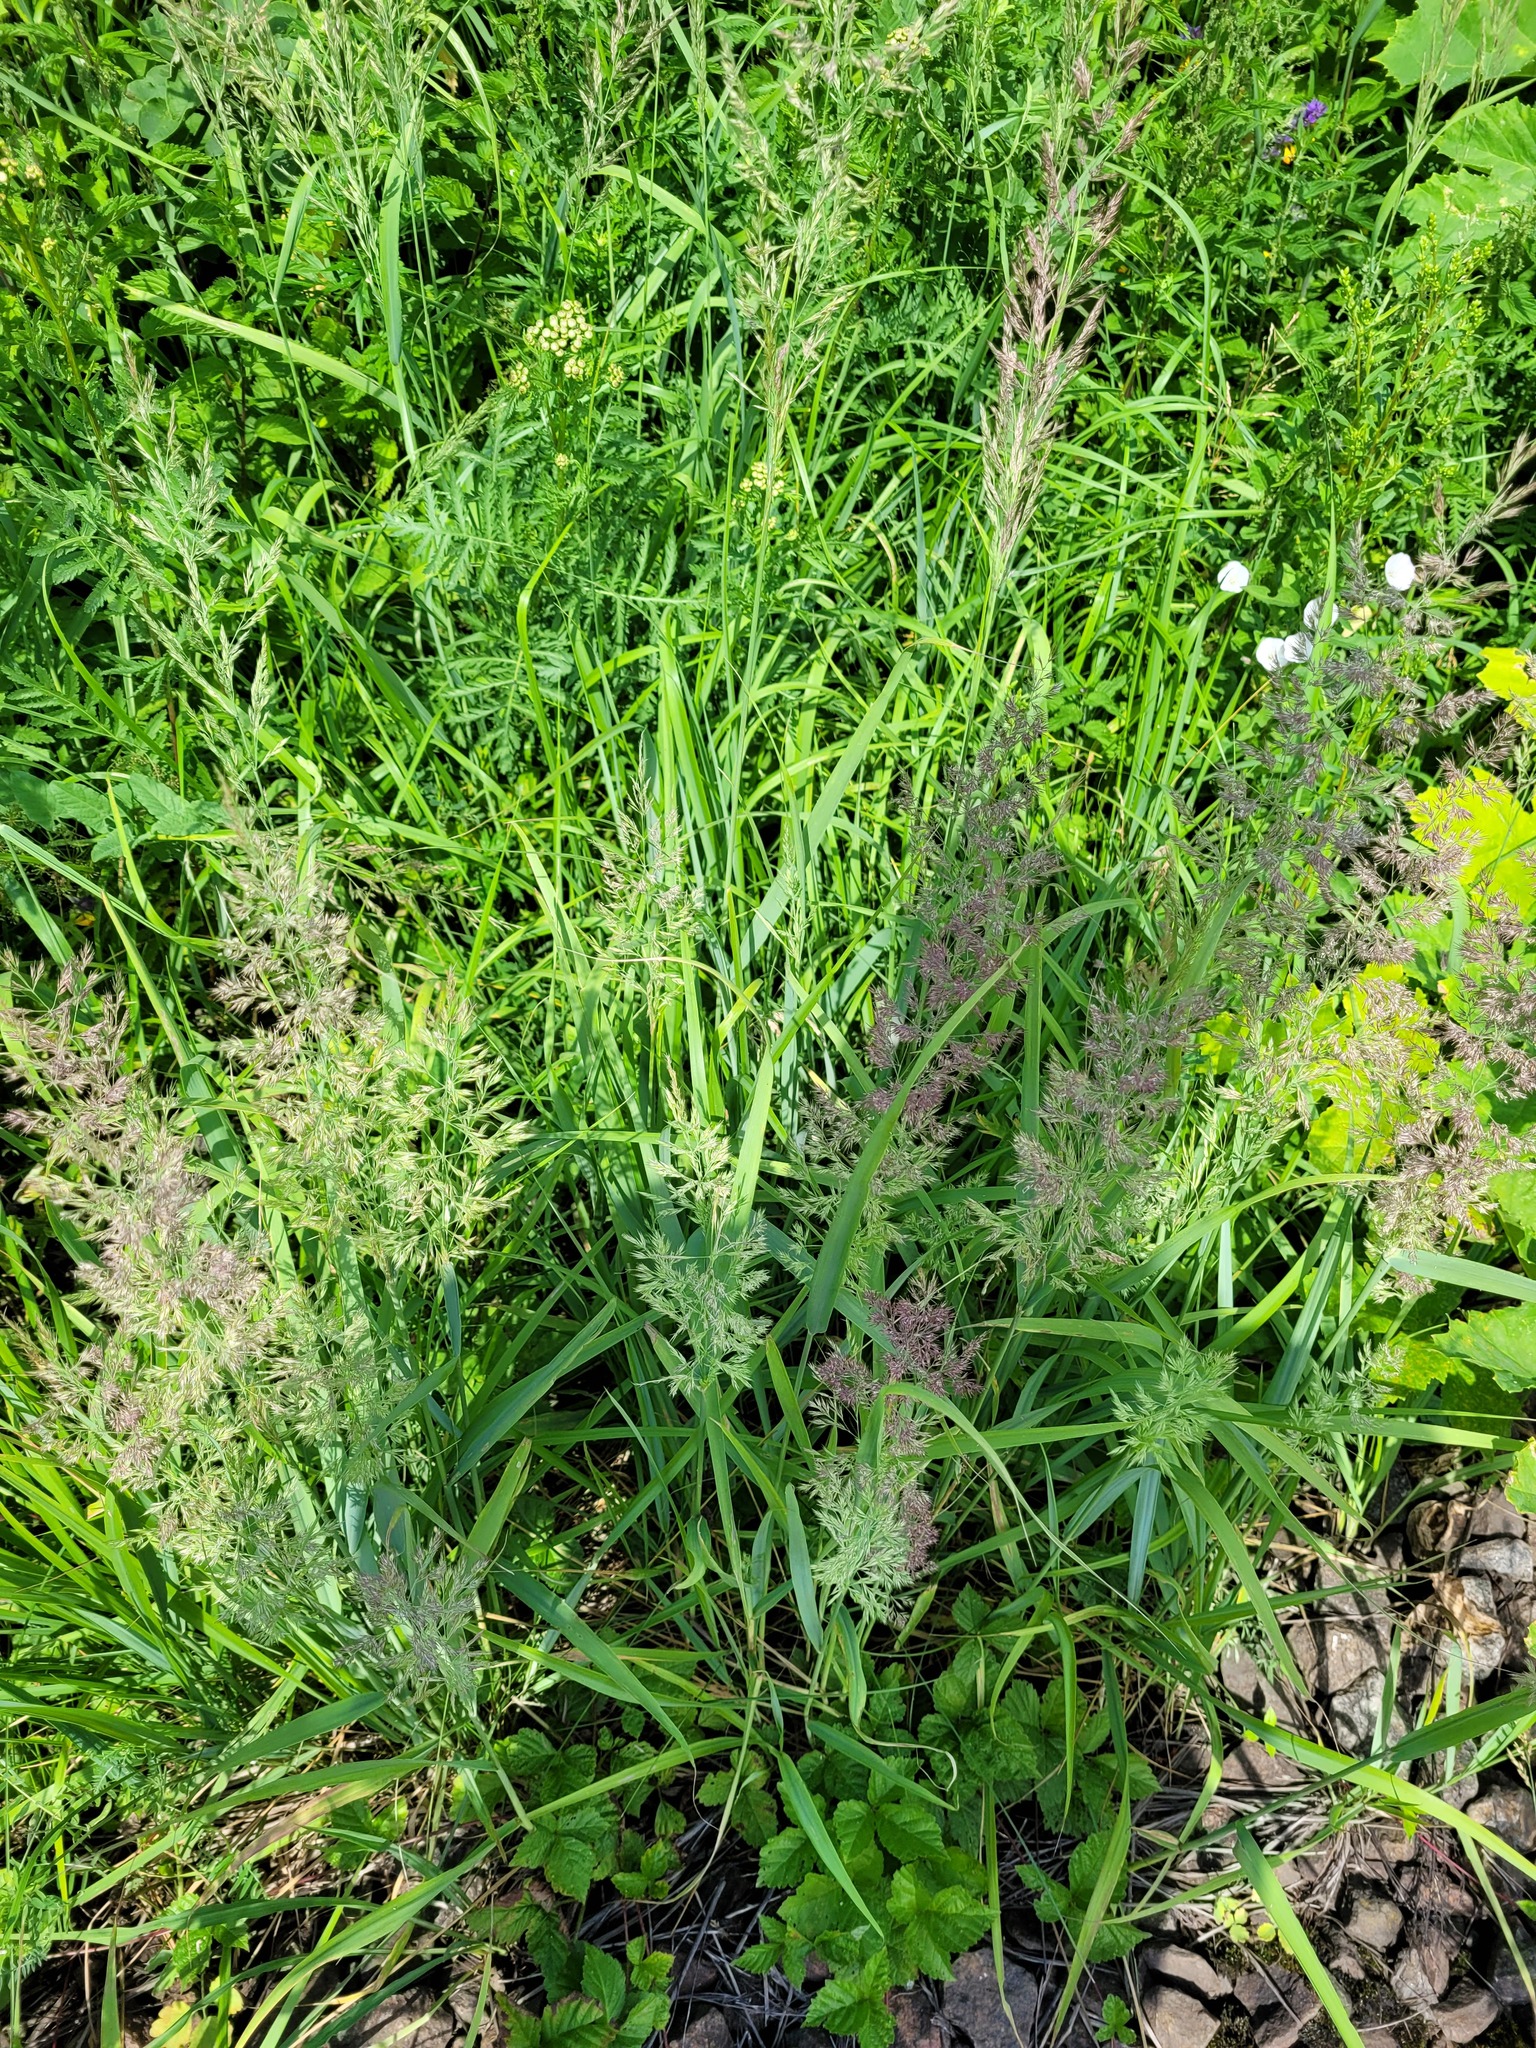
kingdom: Plantae
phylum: Tracheophyta
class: Liliopsida
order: Poales
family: Poaceae
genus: Calamagrostis
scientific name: Calamagrostis epigejos
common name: Wood small-reed
